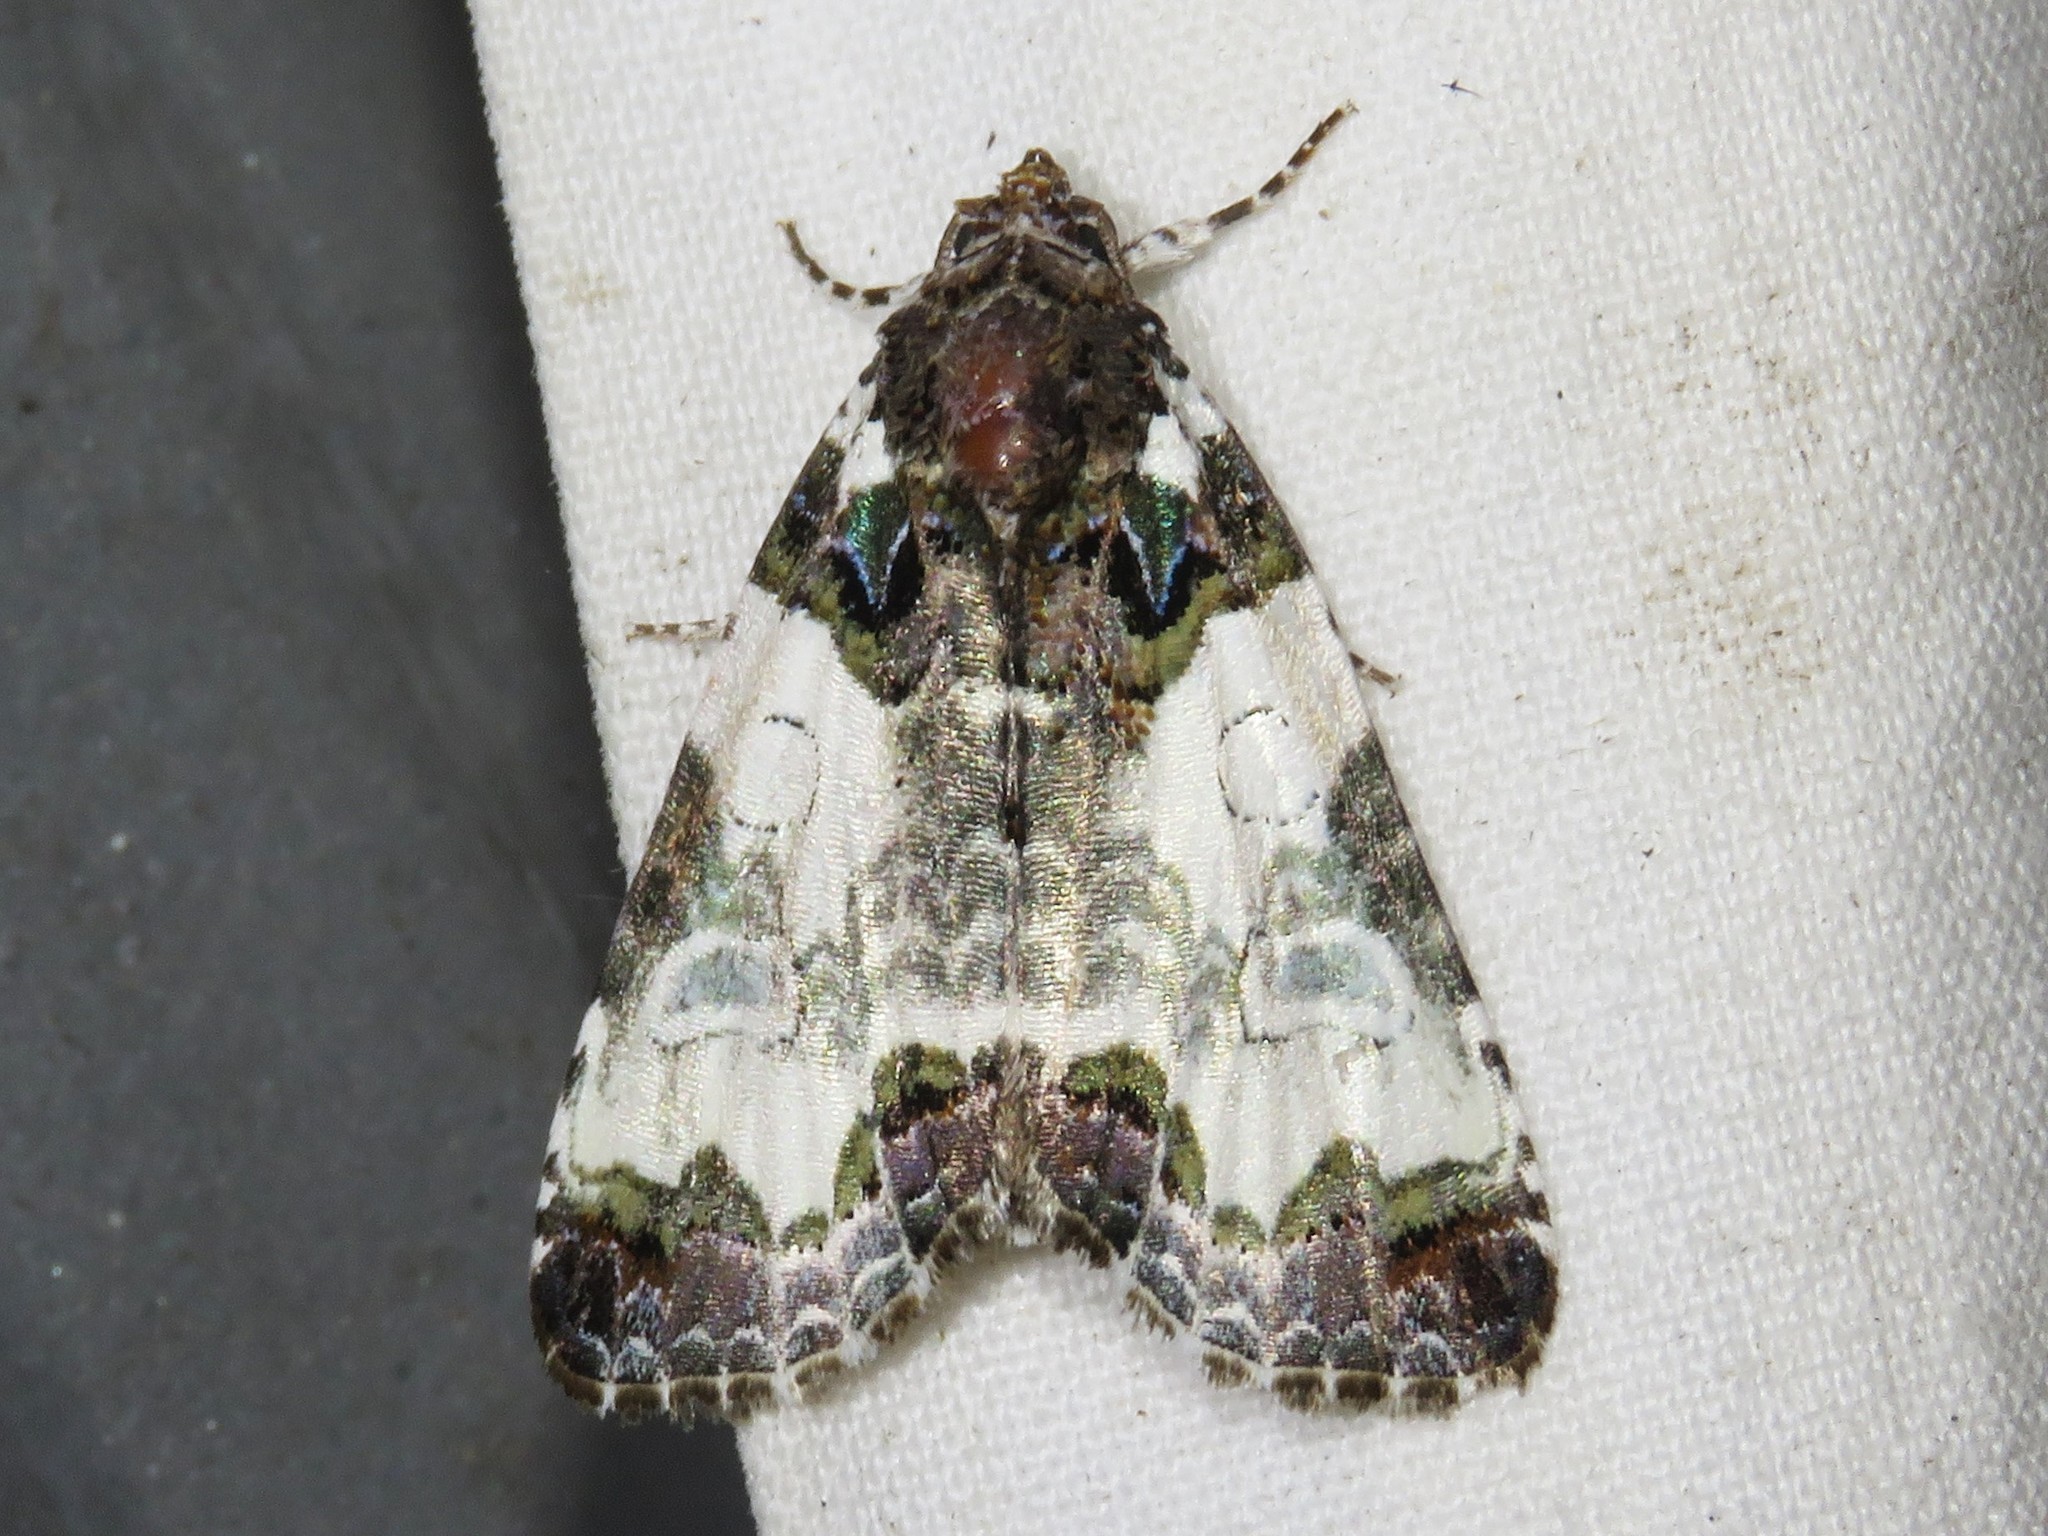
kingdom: Animalia
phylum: Arthropoda
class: Insecta
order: Lepidoptera
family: Noctuidae
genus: Cerma
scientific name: Cerma cerintha
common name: Tufted bird-dropping moth
